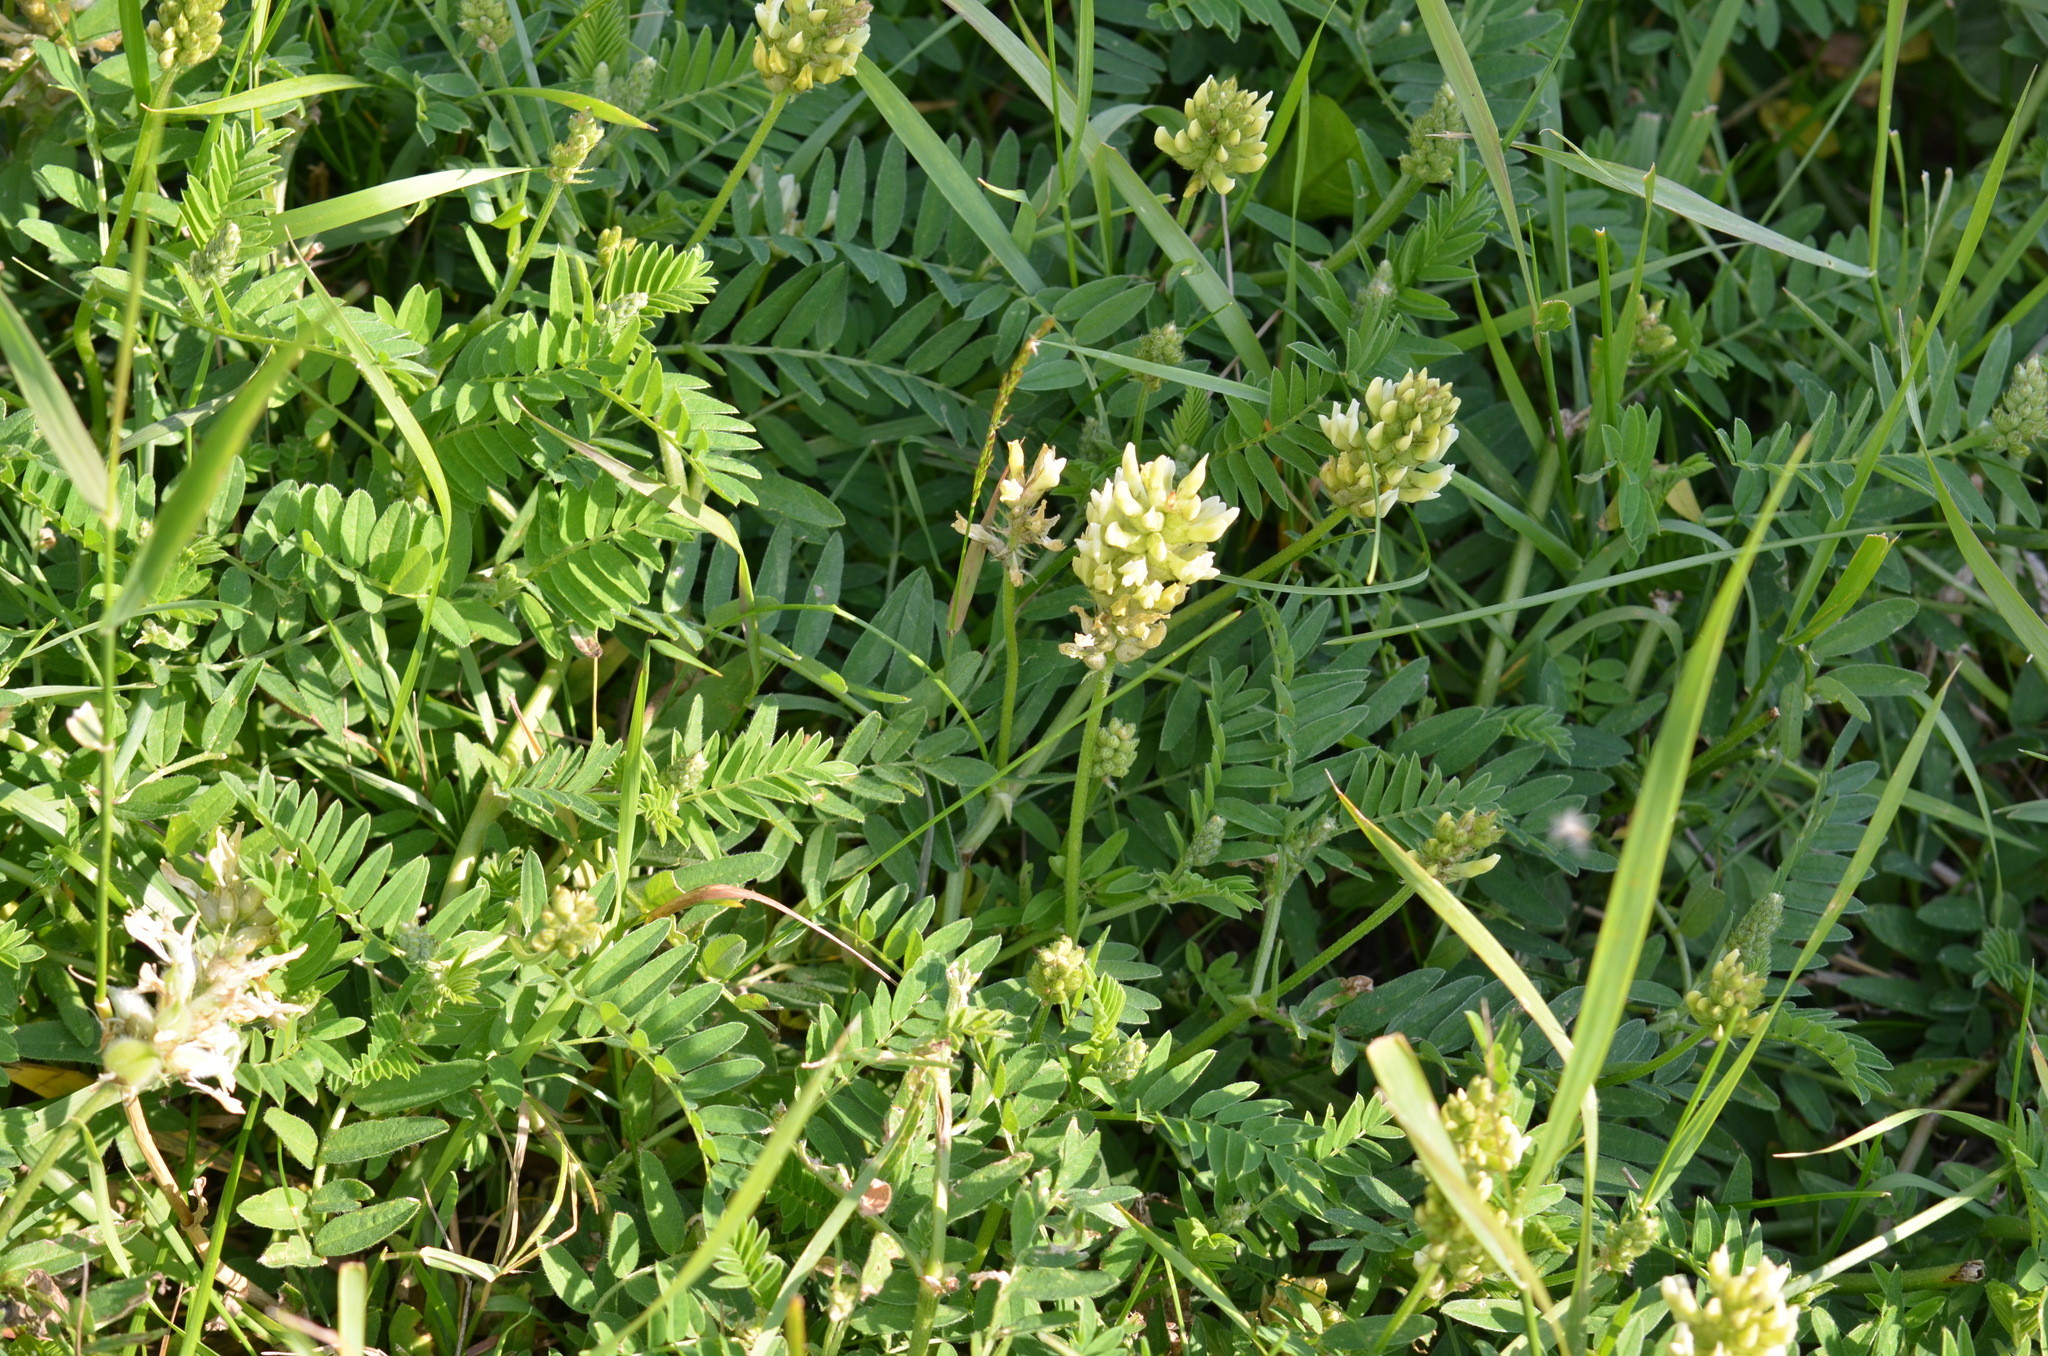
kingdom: Plantae
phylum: Tracheophyta
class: Magnoliopsida
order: Fabales
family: Fabaceae
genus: Astragalus
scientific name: Astragalus cicer
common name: Chick-pea milk-vetch
